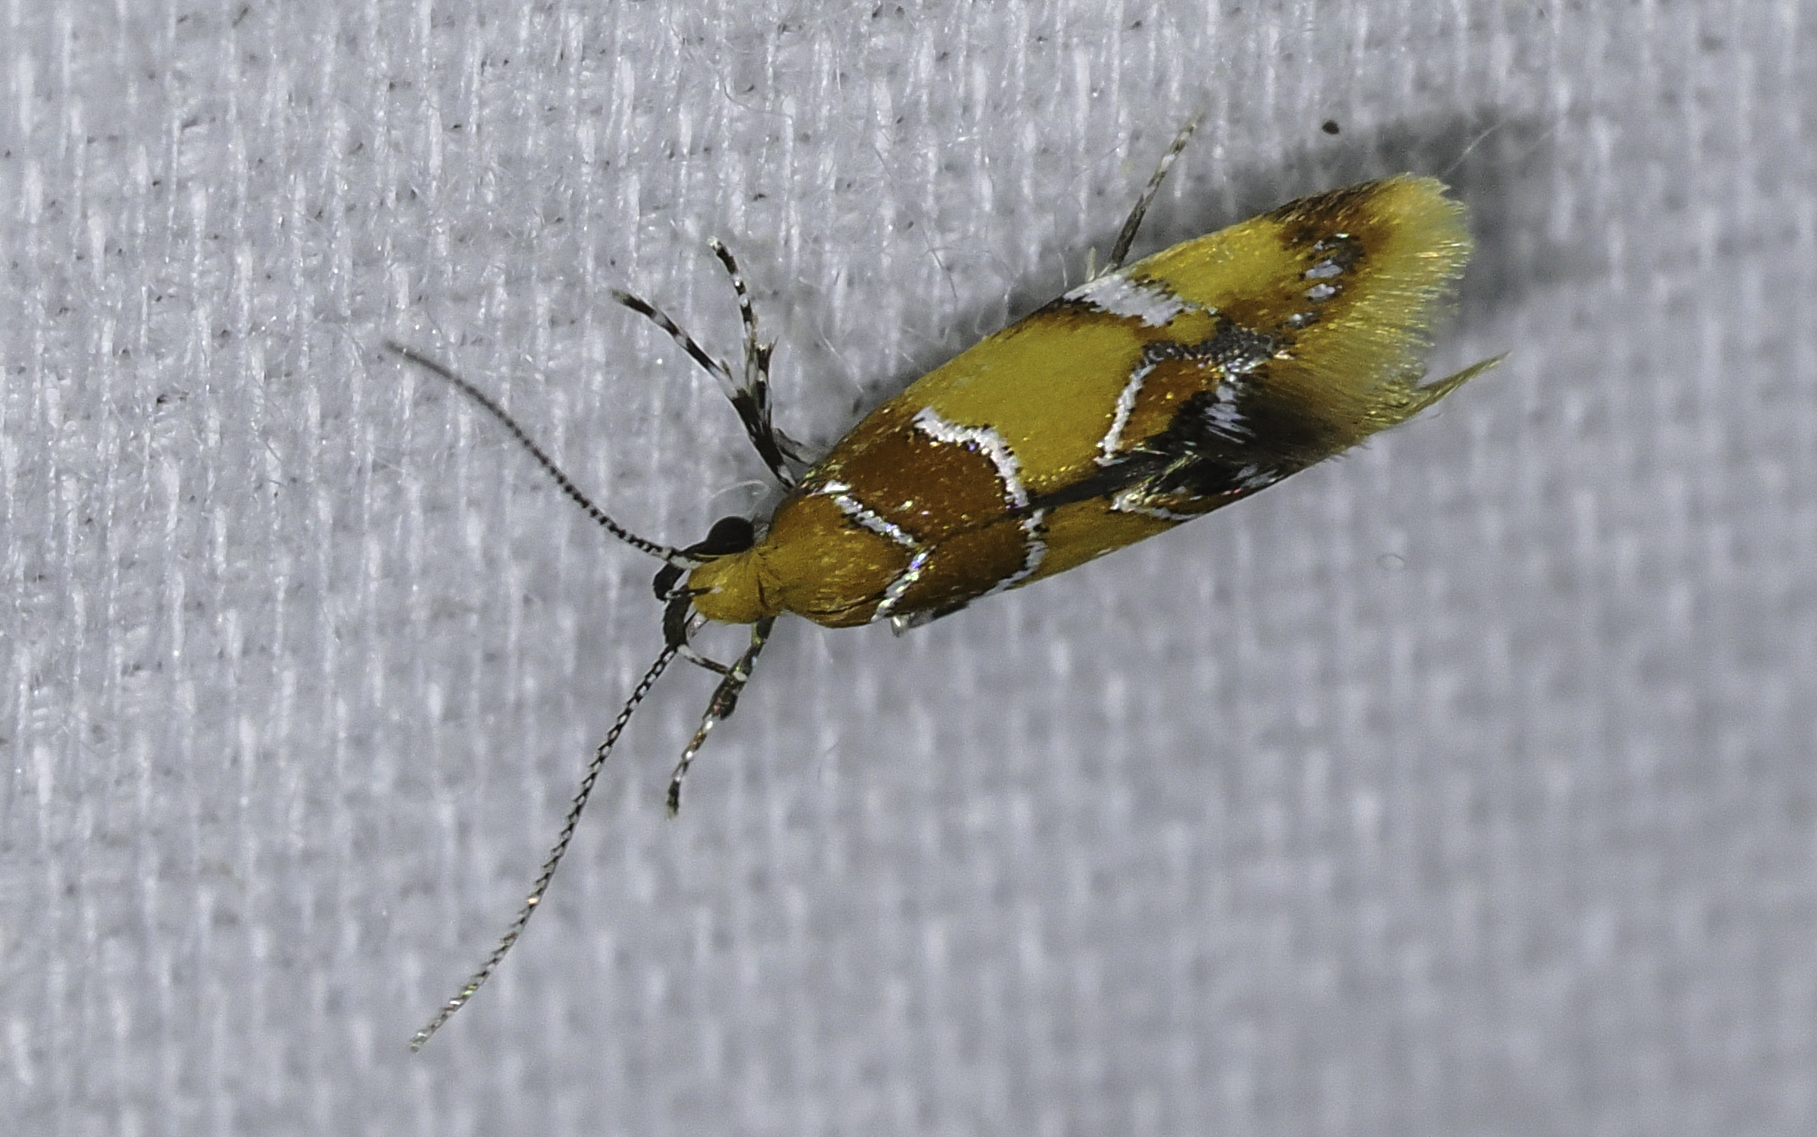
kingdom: Animalia
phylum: Arthropoda
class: Insecta
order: Lepidoptera
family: Oecophoridae
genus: Callima
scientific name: Callima argenticinctella
